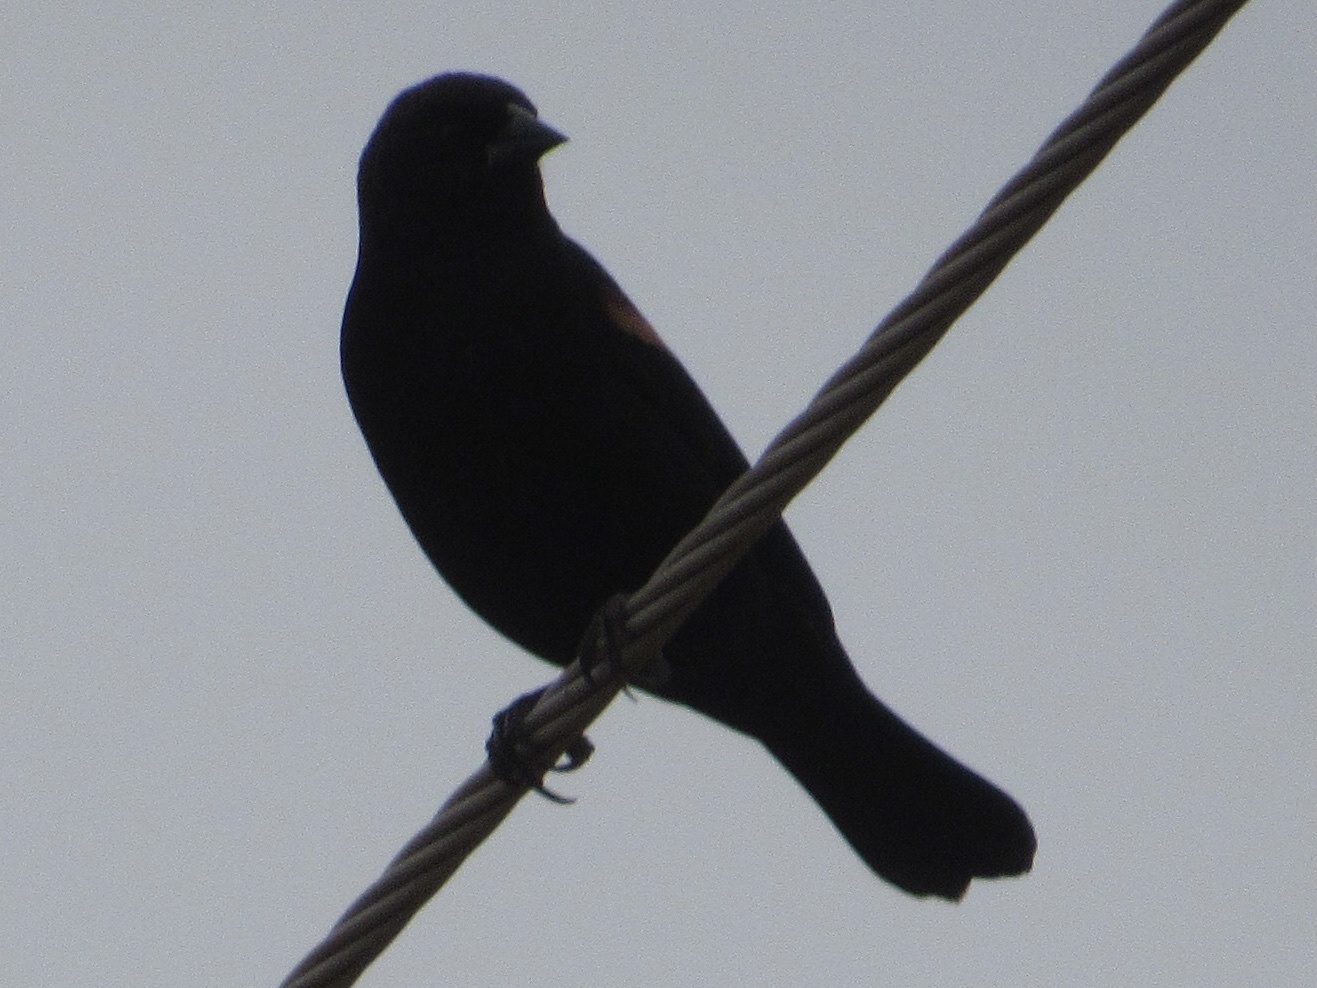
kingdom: Animalia
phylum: Chordata
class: Aves
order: Passeriformes
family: Icteridae
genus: Agelaius
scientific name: Agelaius phoeniceus
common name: Red-winged blackbird
